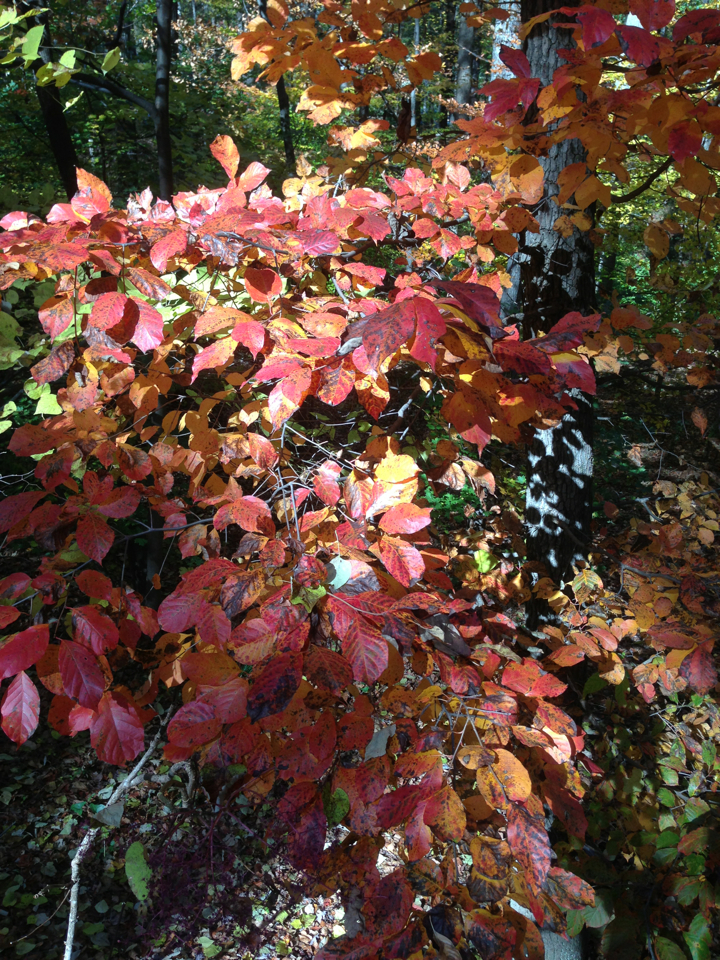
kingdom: Plantae
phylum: Tracheophyta
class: Magnoliopsida
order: Cornales
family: Nyssaceae
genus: Nyssa
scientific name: Nyssa sylvatica
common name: Black tupelo
